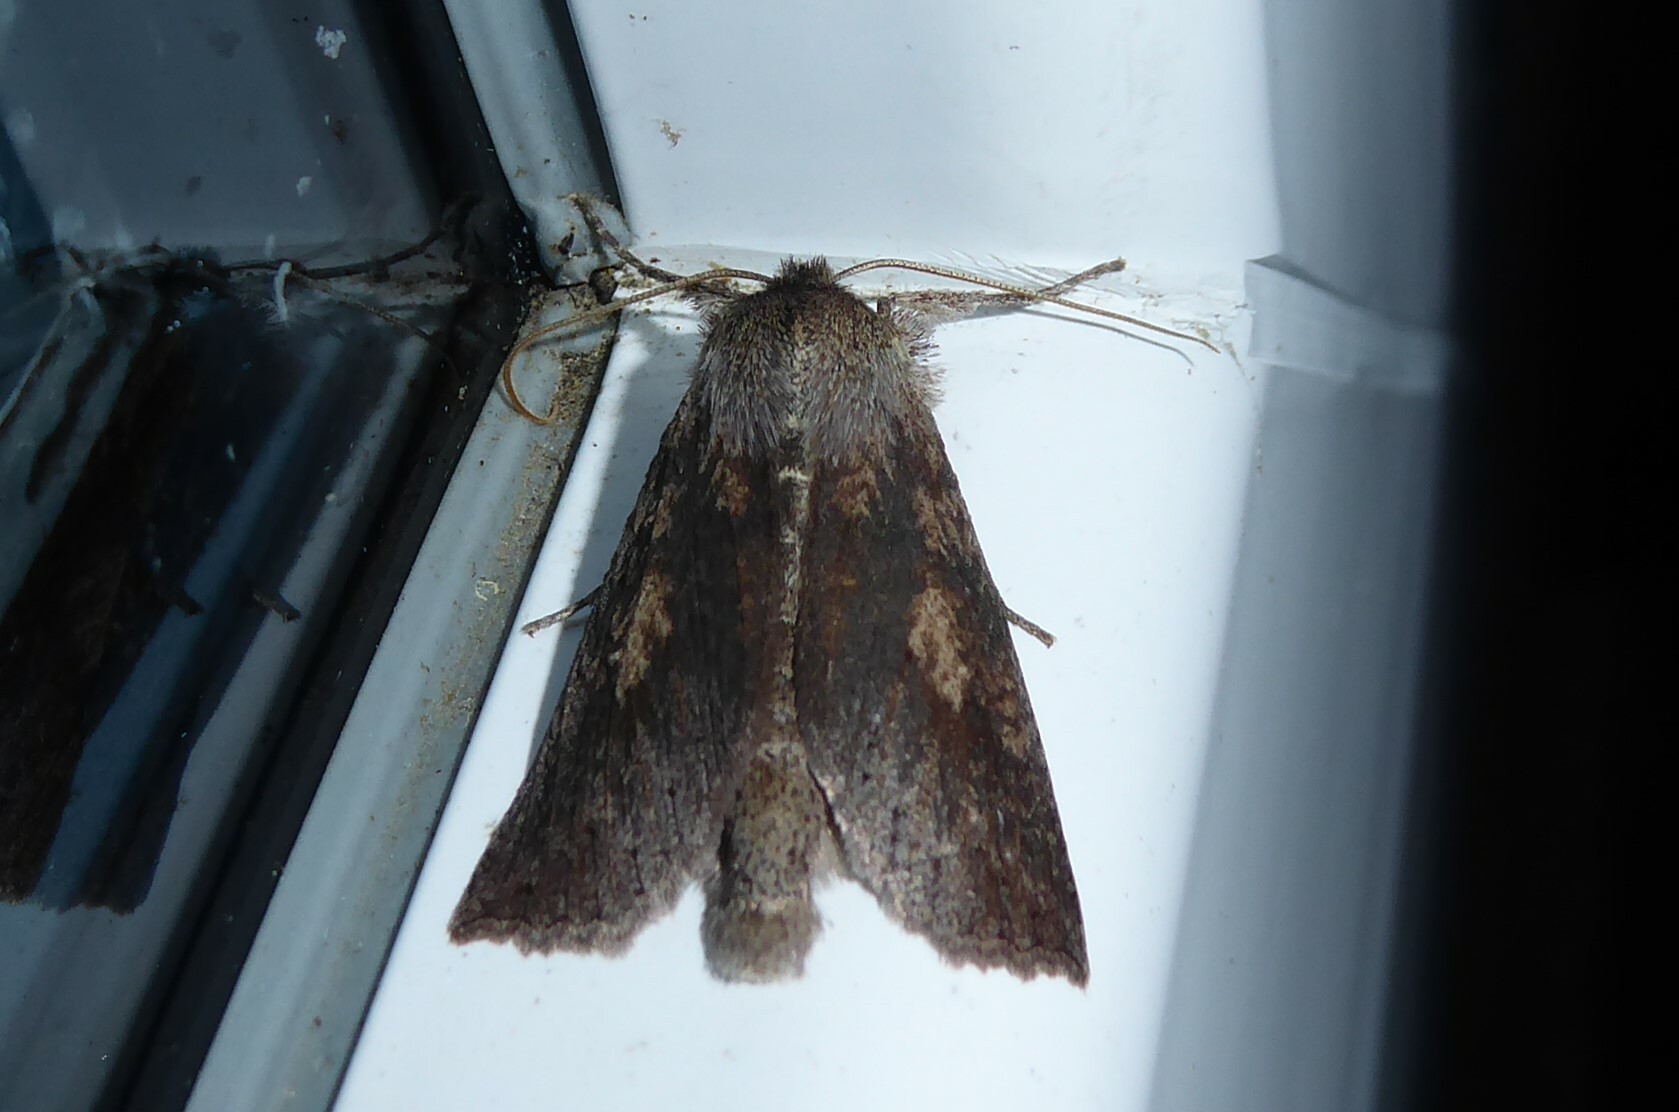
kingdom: Animalia
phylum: Arthropoda
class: Insecta
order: Lepidoptera
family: Geometridae
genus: Declana
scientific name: Declana leptomera
